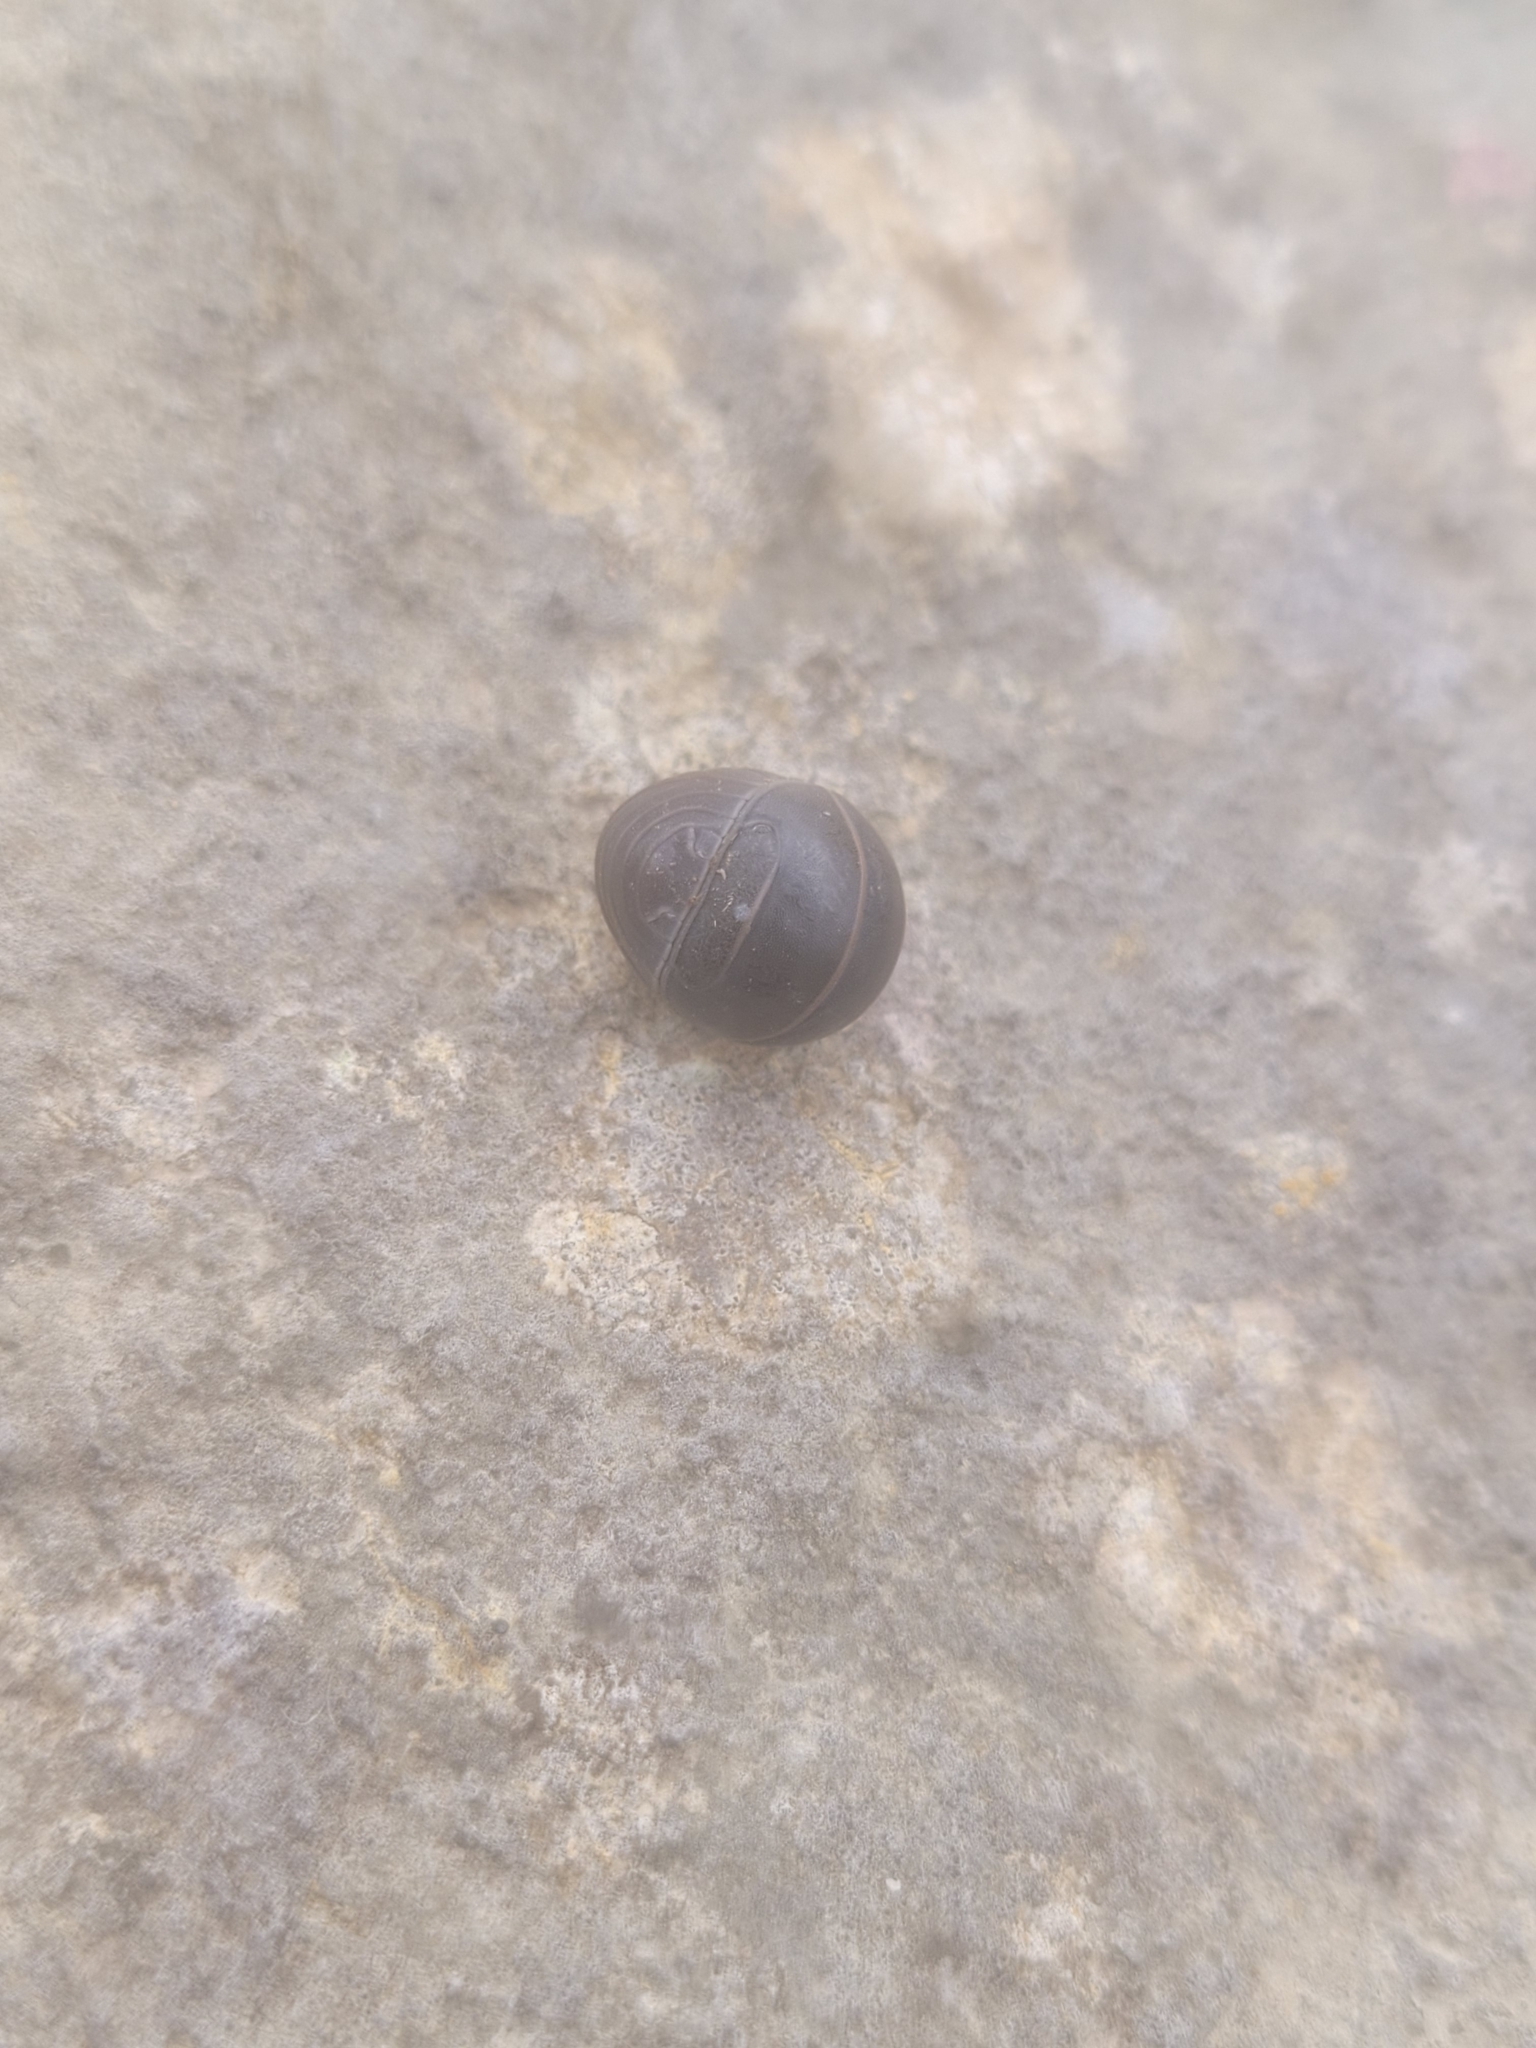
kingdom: Animalia
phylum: Arthropoda
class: Malacostraca
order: Isopoda
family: Armadillidae
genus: Armadillo
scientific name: Armadillo officinalis
